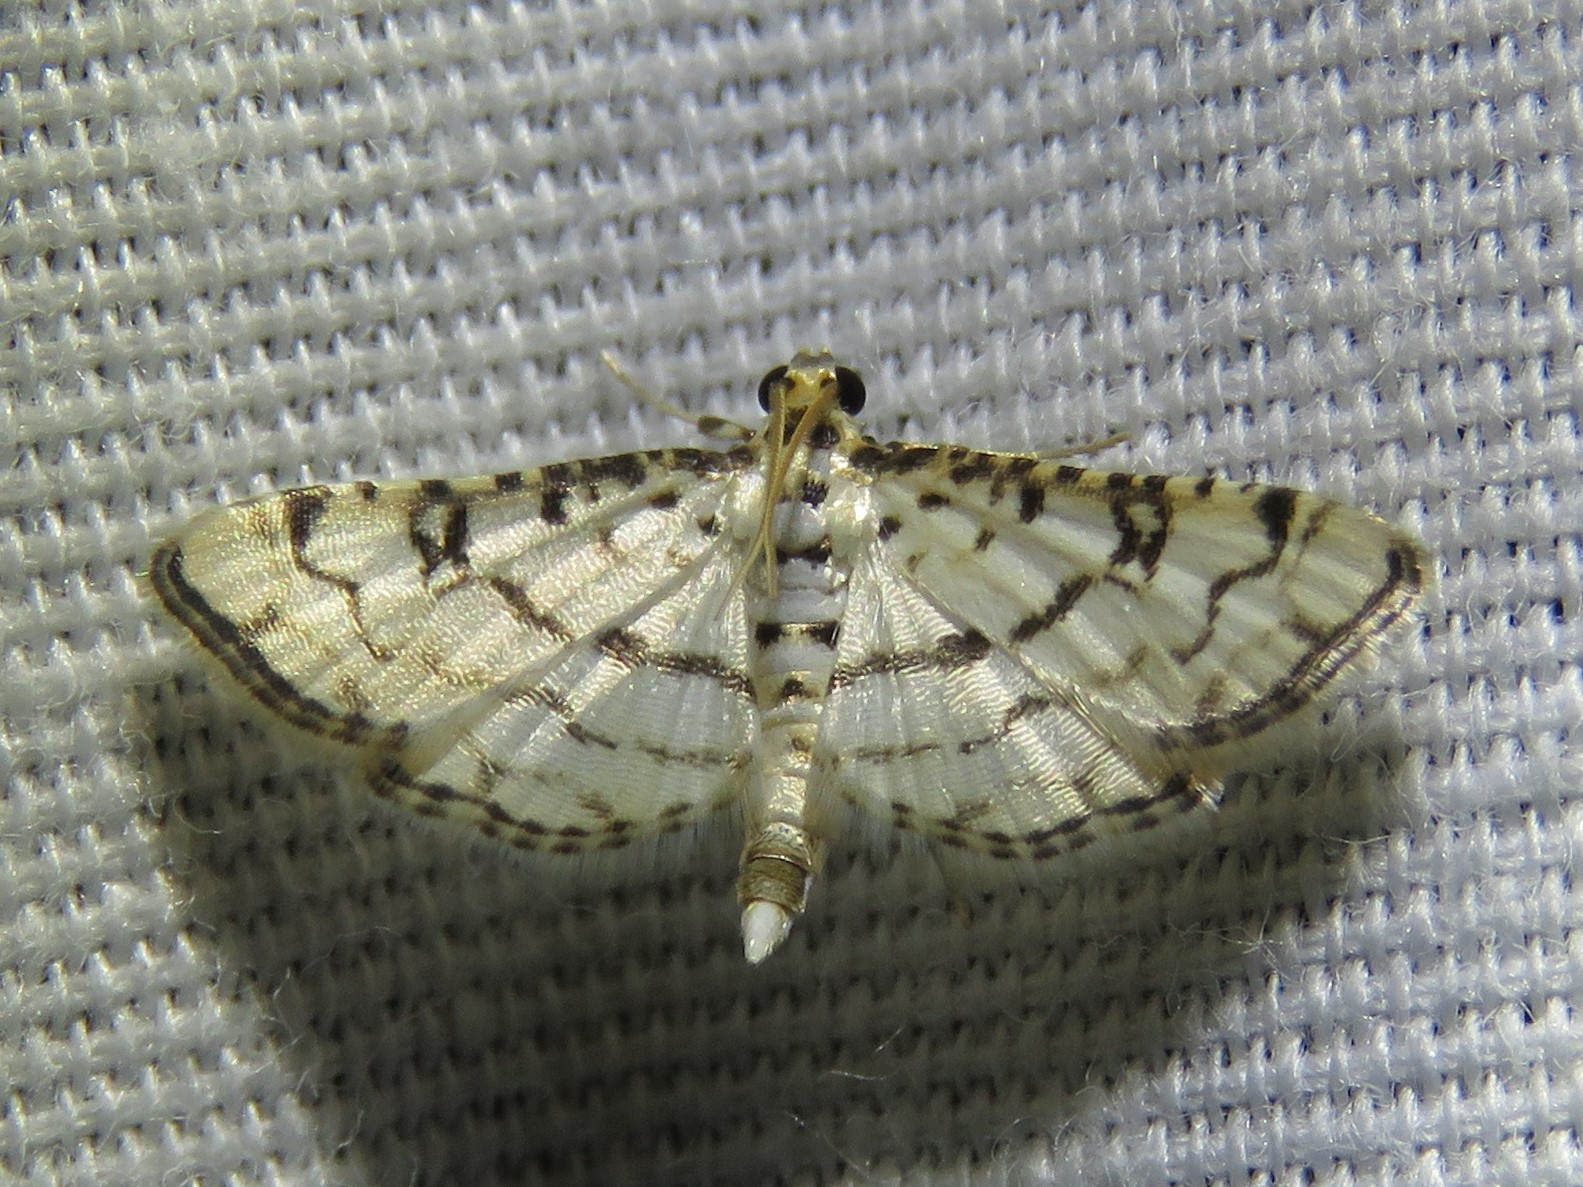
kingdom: Animalia
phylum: Arthropoda
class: Insecta
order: Lepidoptera
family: Crambidae
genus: Hileithia
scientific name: Hileithia rehamalis
